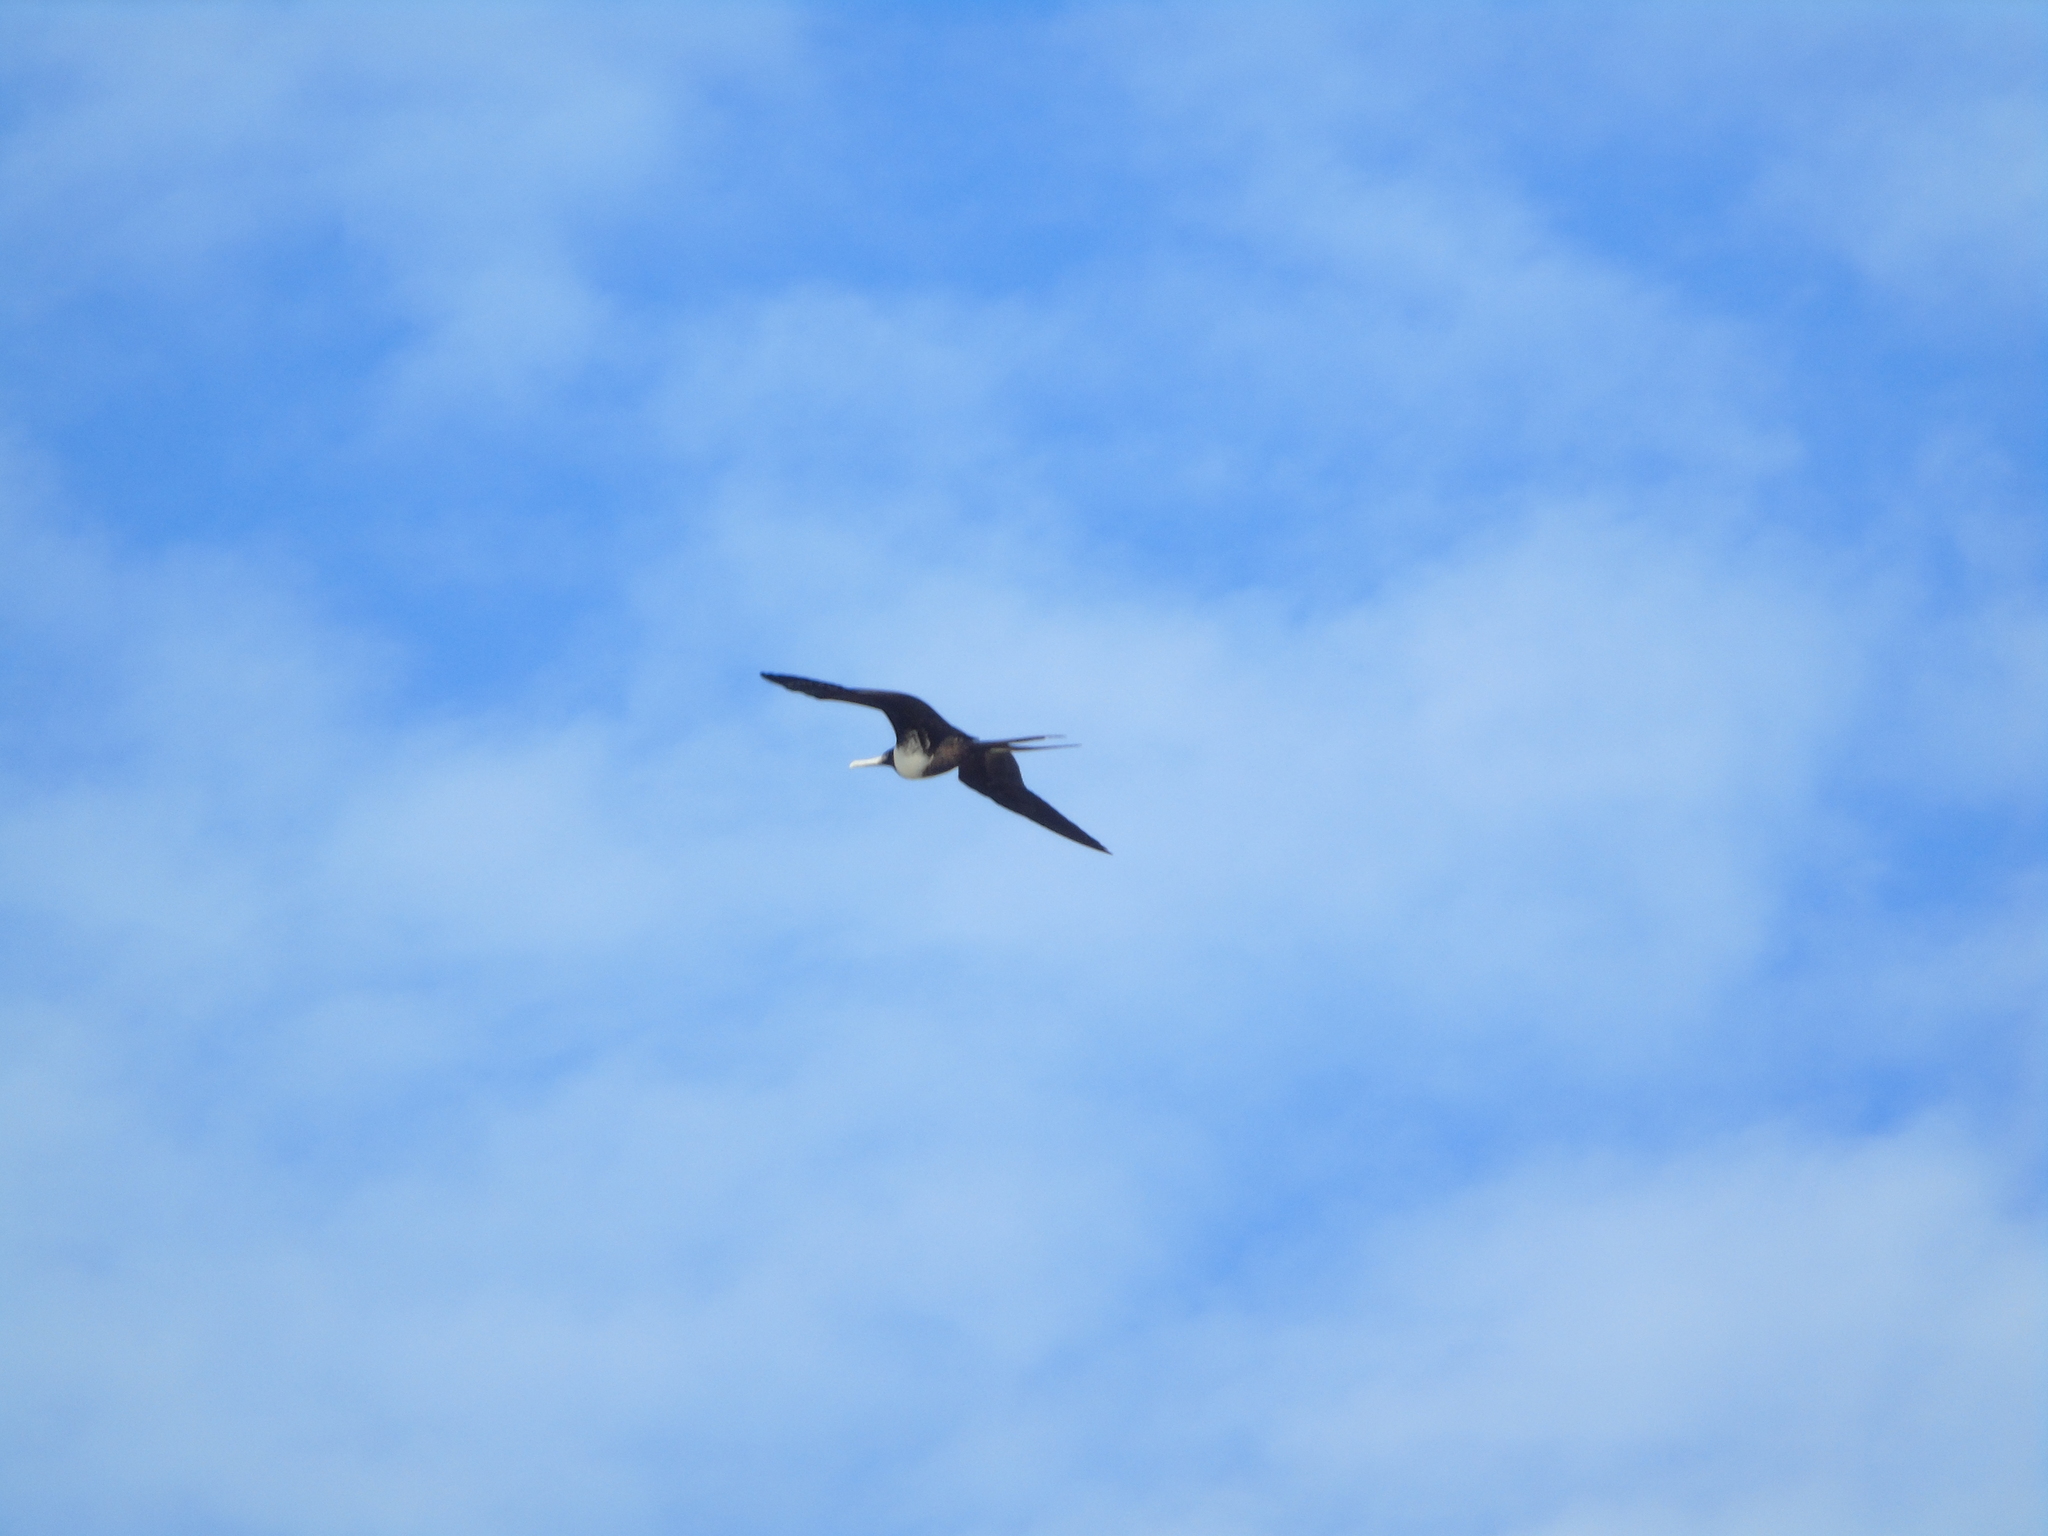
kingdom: Animalia
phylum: Chordata
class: Aves
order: Suliformes
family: Fregatidae
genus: Fregata
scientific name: Fregata magnificens
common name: Magnificent frigatebird
